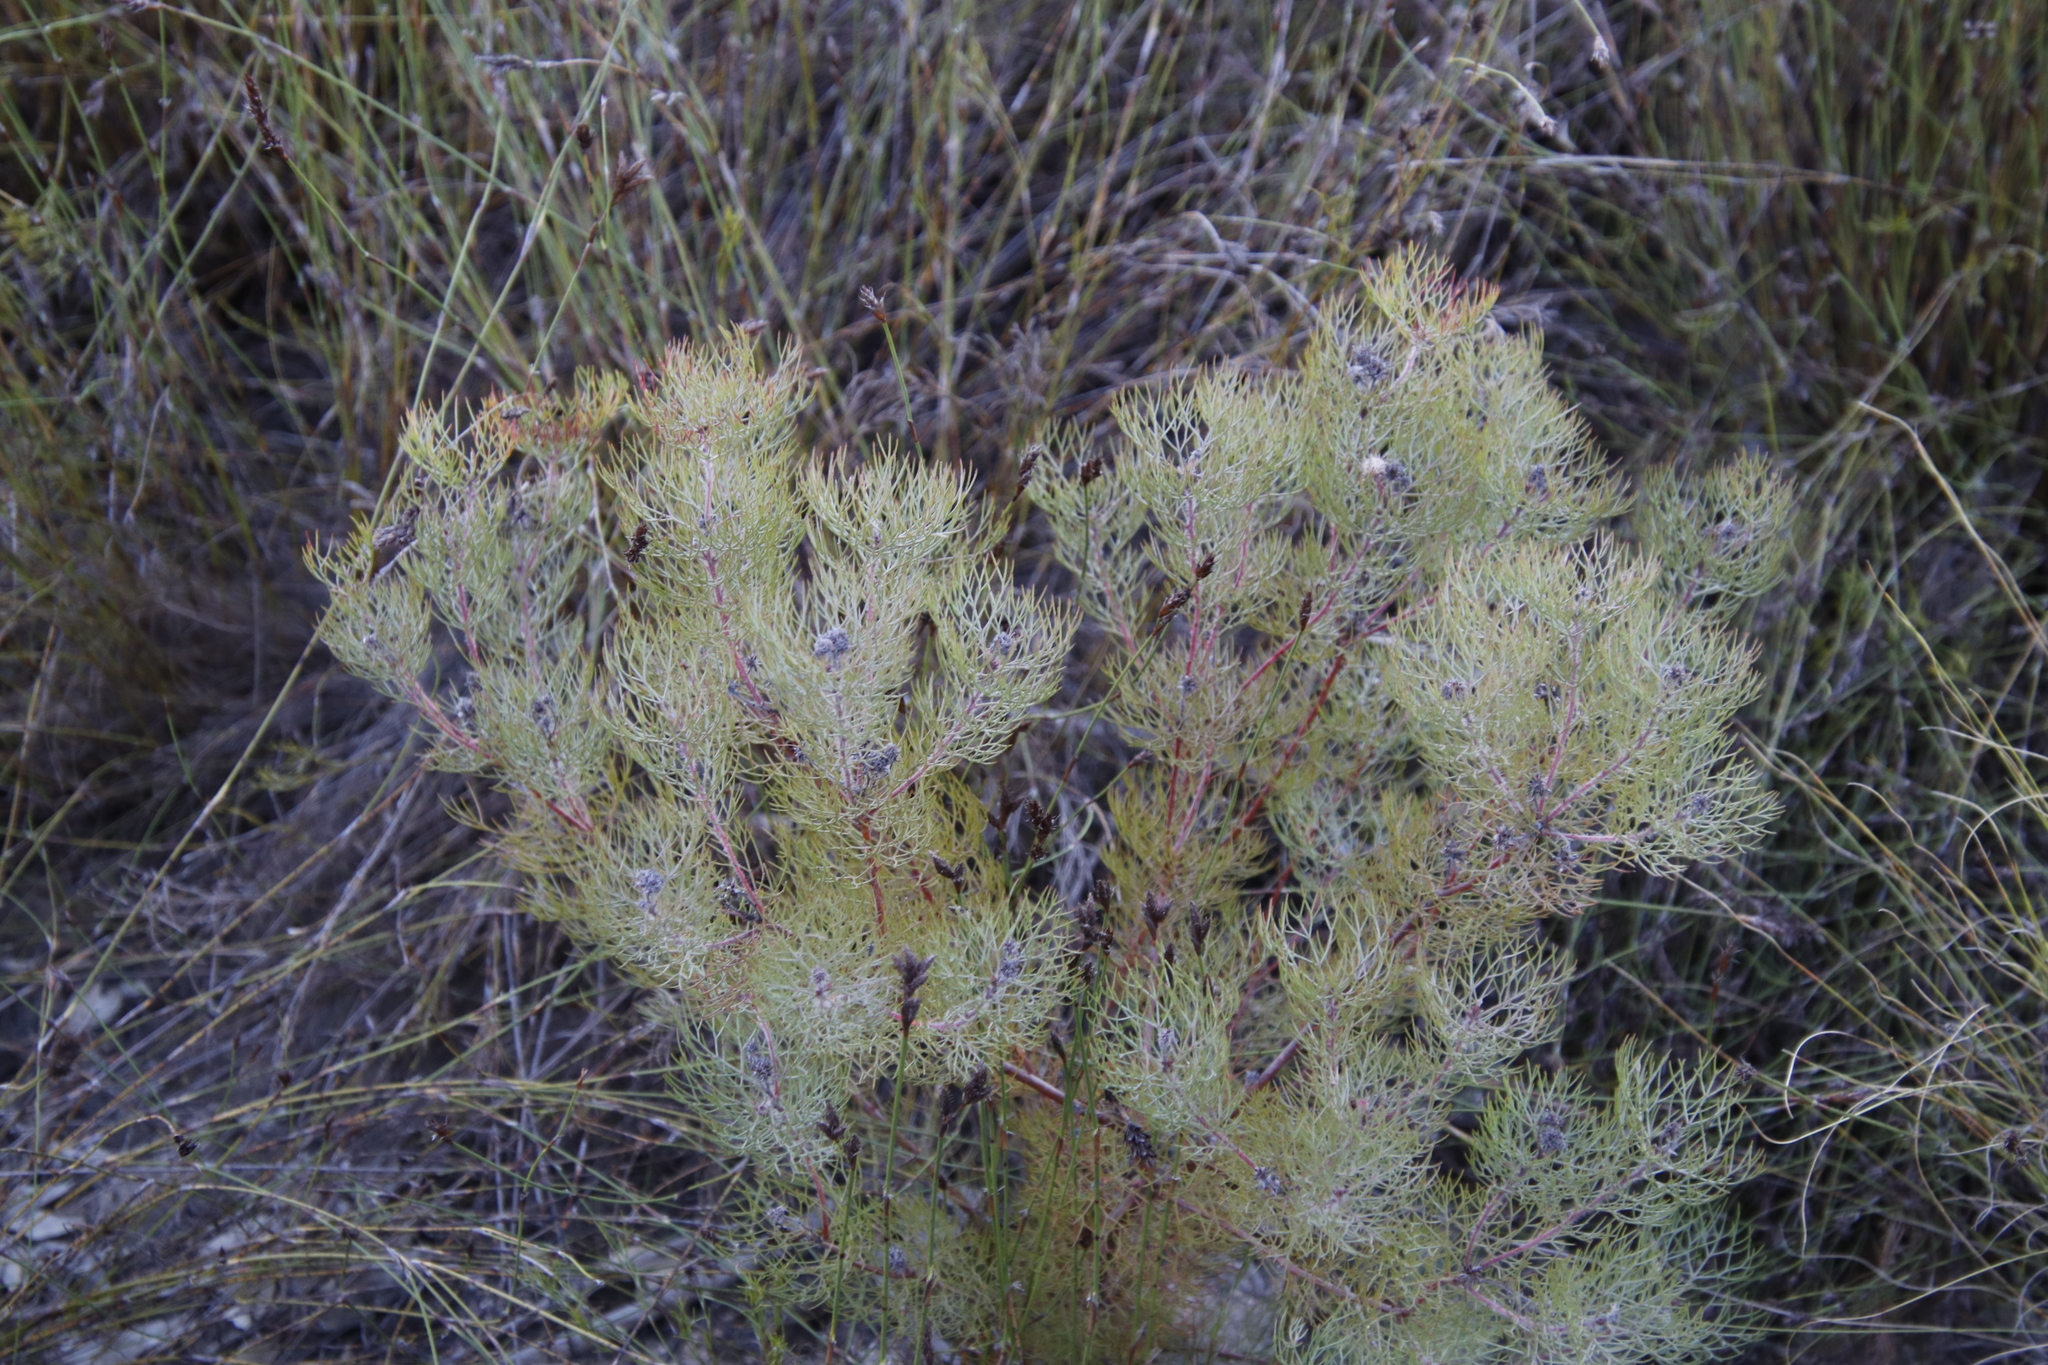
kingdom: Plantae
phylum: Tracheophyta
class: Magnoliopsida
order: Proteales
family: Proteaceae
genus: Serruria
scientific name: Serruria fasciflora
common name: Common pin spiderhead
